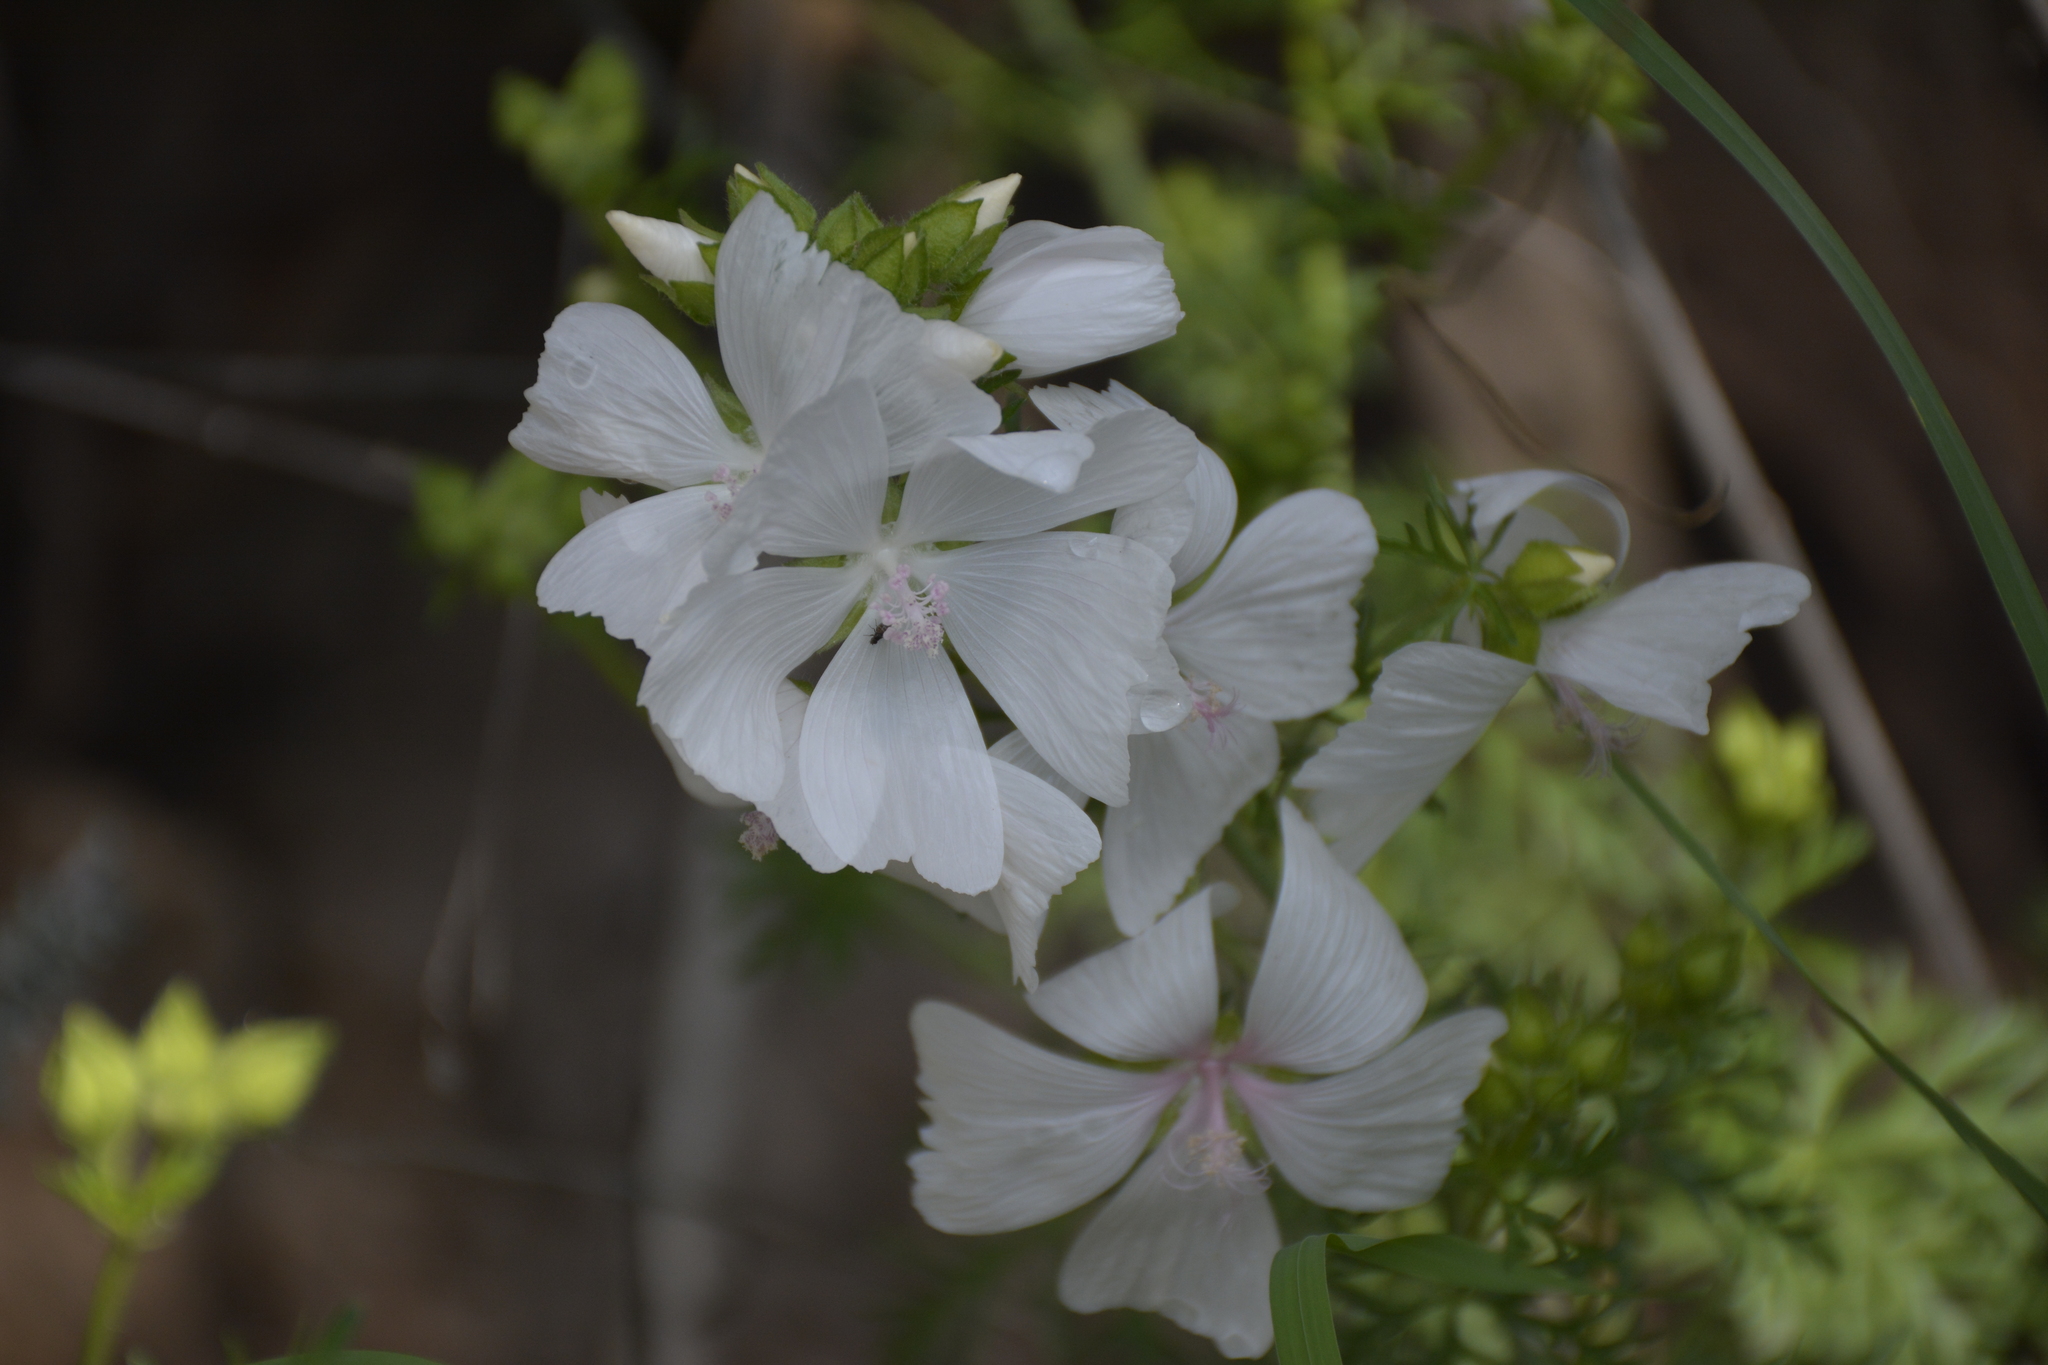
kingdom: Plantae
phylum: Tracheophyta
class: Magnoliopsida
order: Malvales
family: Malvaceae
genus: Malva
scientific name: Malva moschata
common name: Musk mallow
